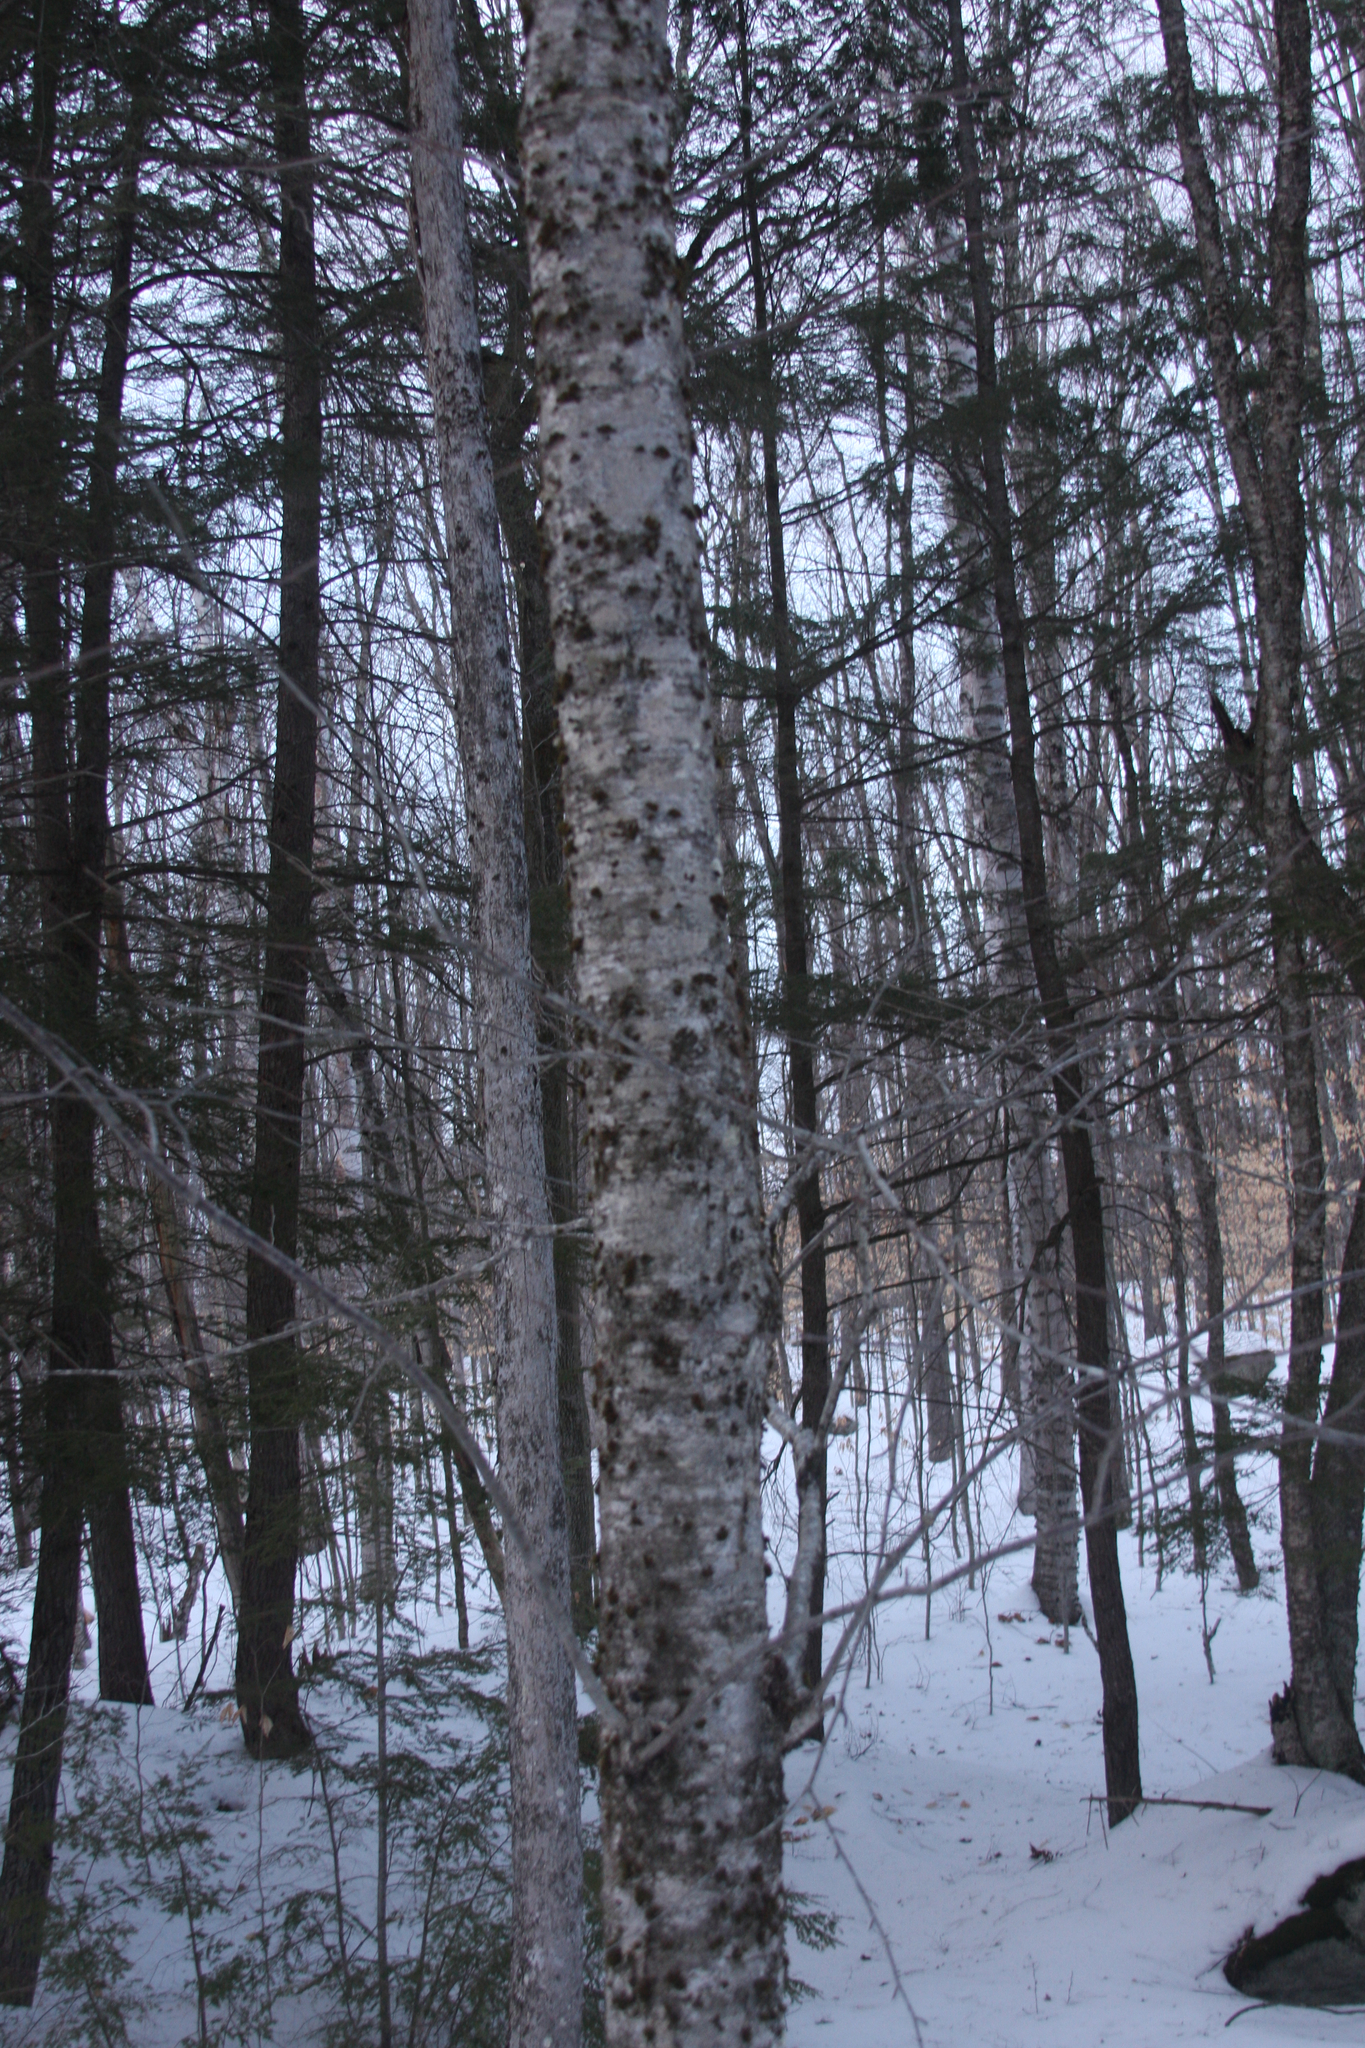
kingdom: Plantae
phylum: Bryophyta
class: Bryopsida
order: Orthotrichales
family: Orthotrichaceae
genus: Ulota
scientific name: Ulota crispa
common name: Crisped pincushion moss
